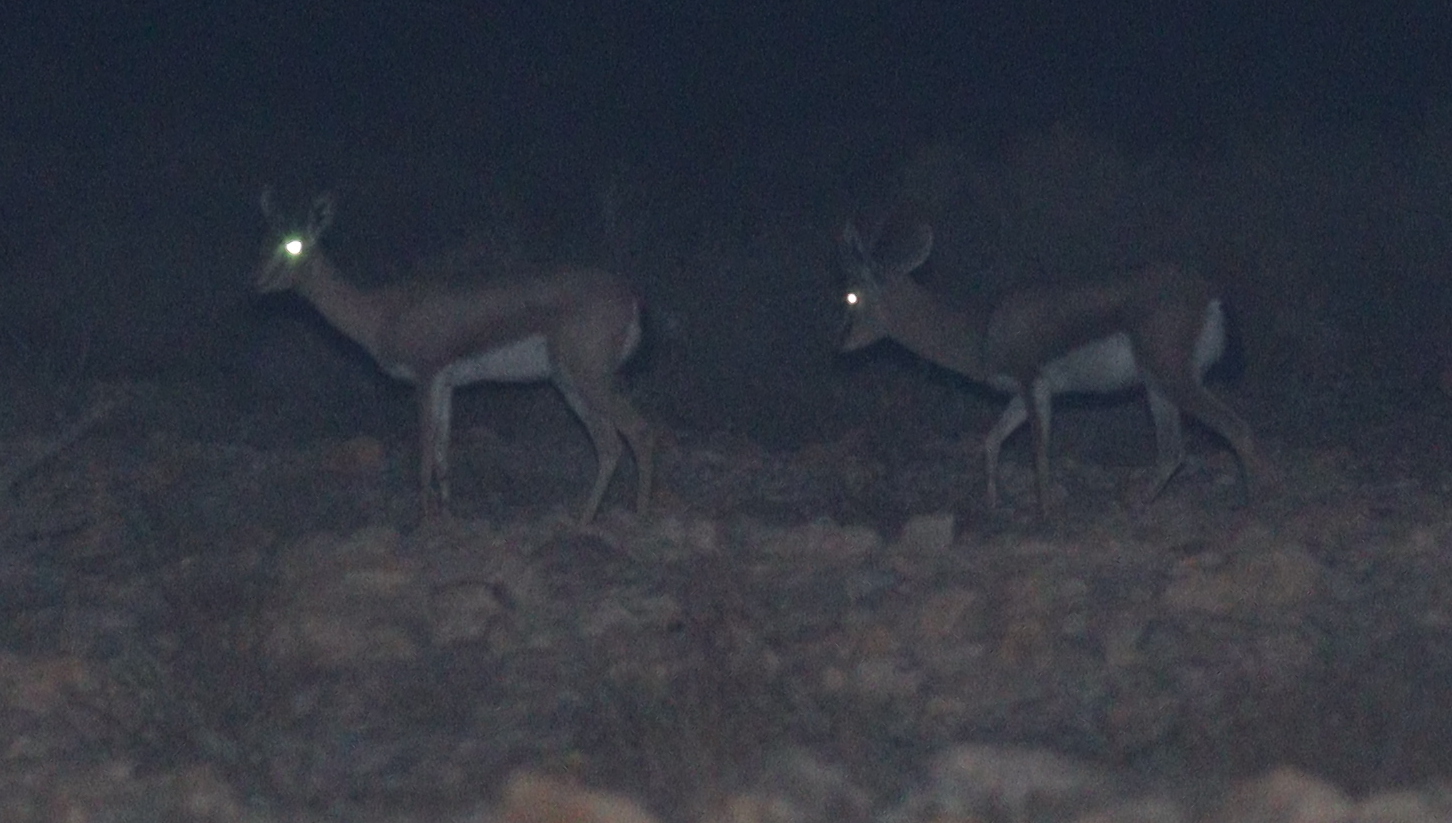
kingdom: Animalia
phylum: Chordata
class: Mammalia
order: Artiodactyla
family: Bovidae
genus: Gazella
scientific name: Gazella dorcas
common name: Dorcas gazelle
